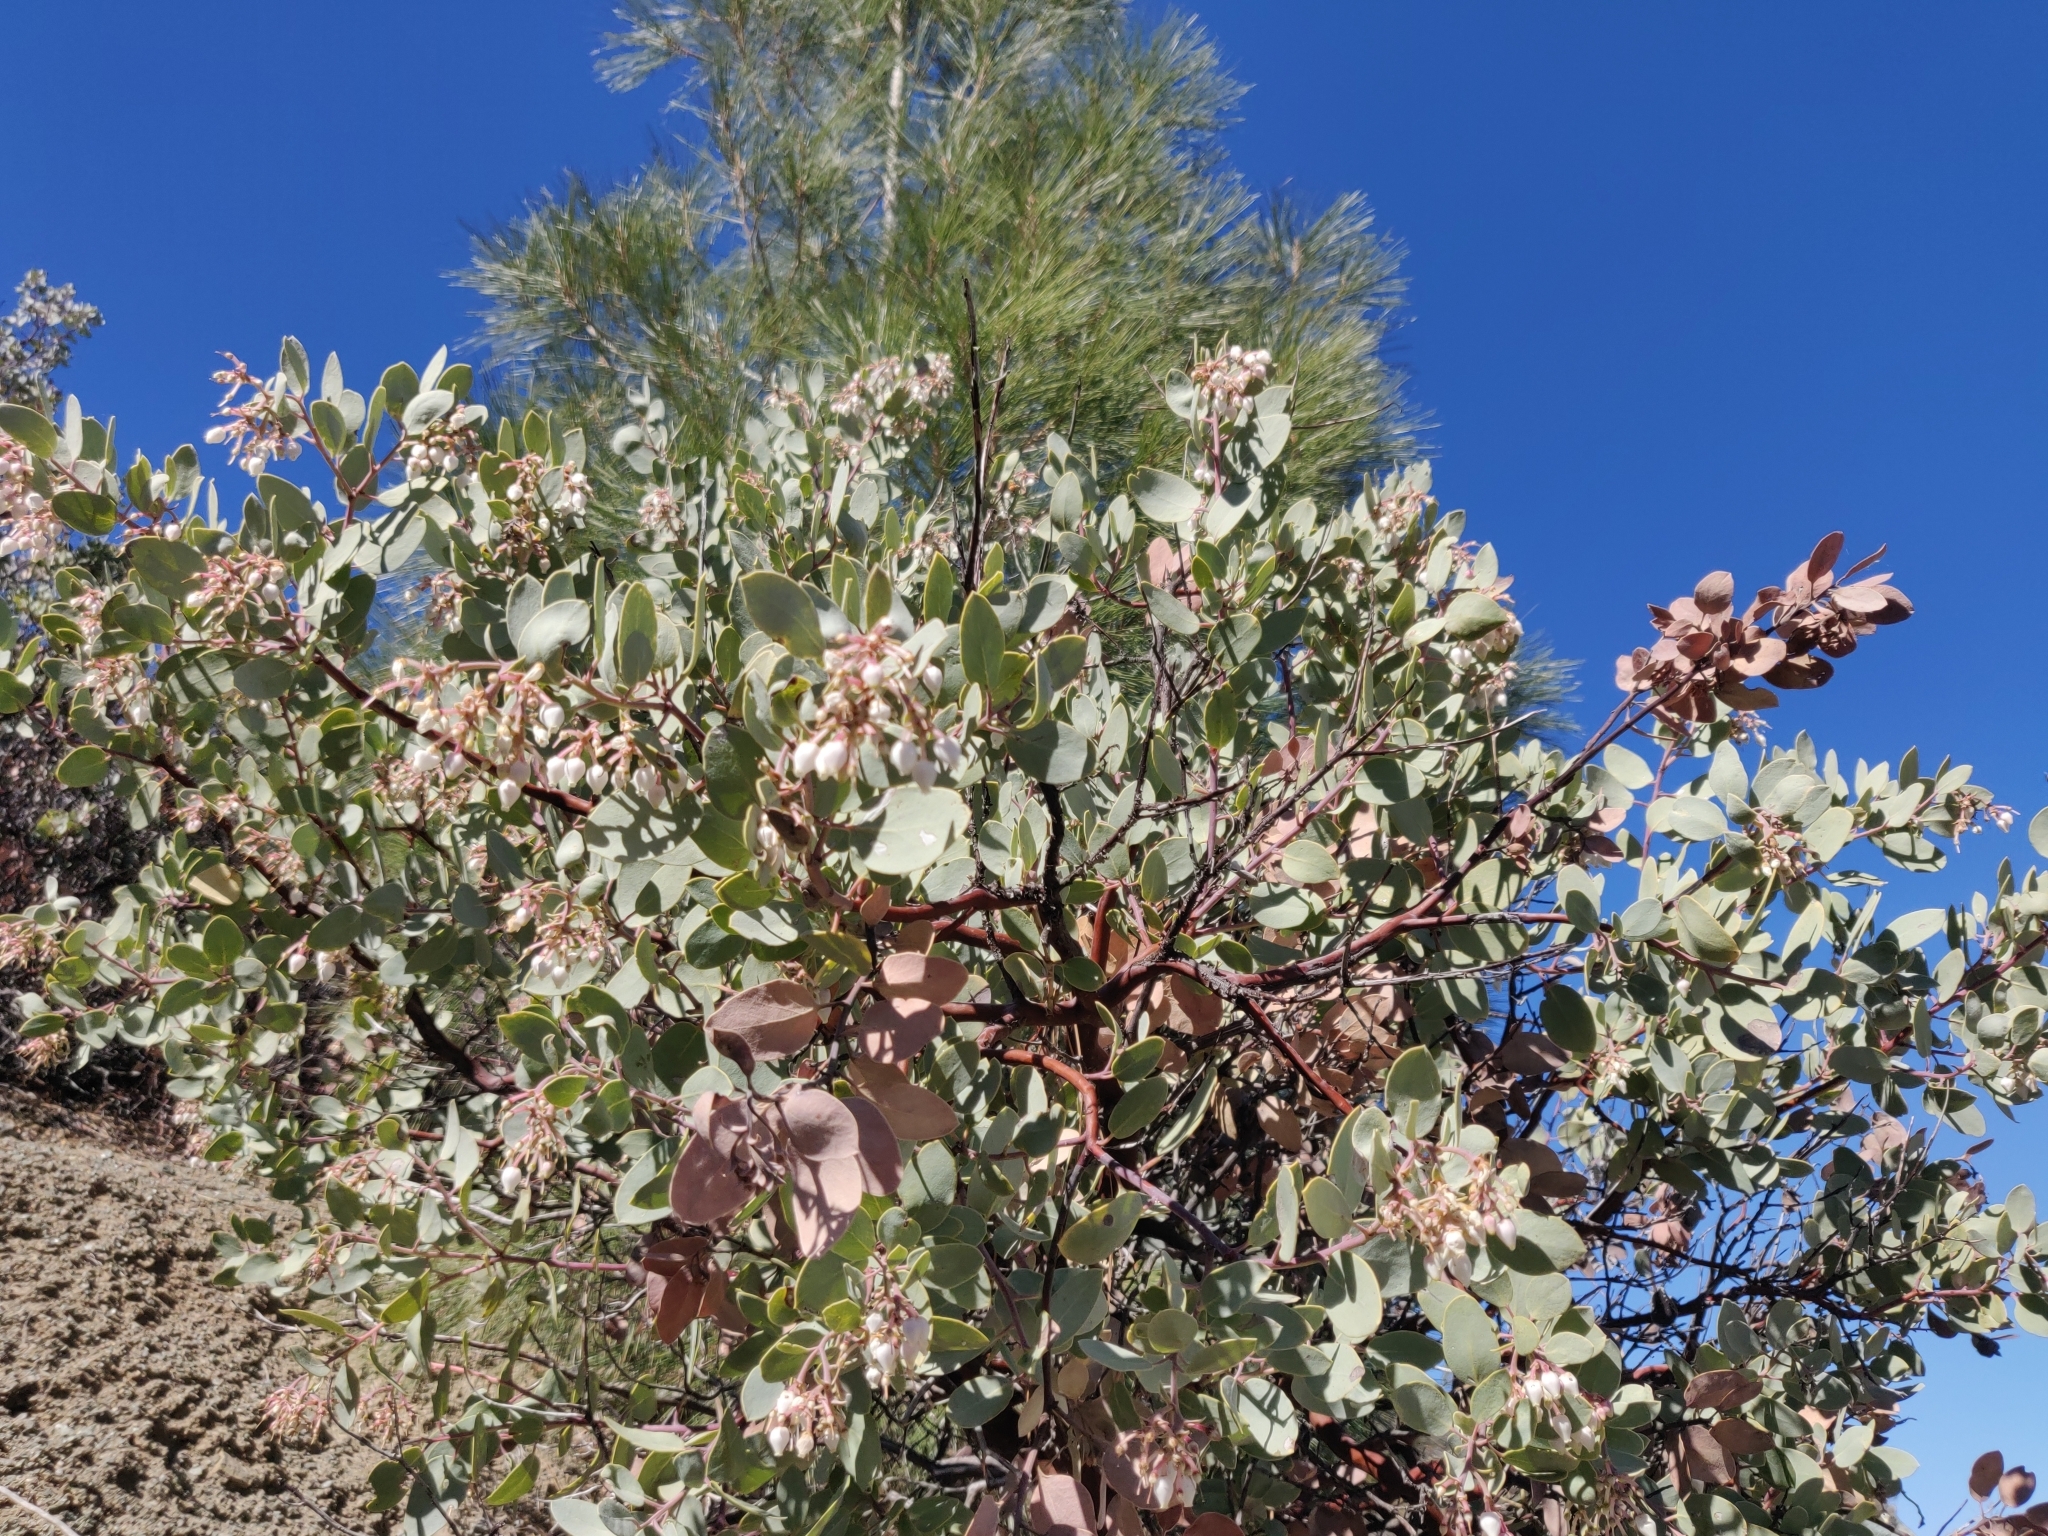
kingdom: Plantae
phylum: Tracheophyta
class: Magnoliopsida
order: Ericales
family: Ericaceae
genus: Arctostaphylos
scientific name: Arctostaphylos glauca
